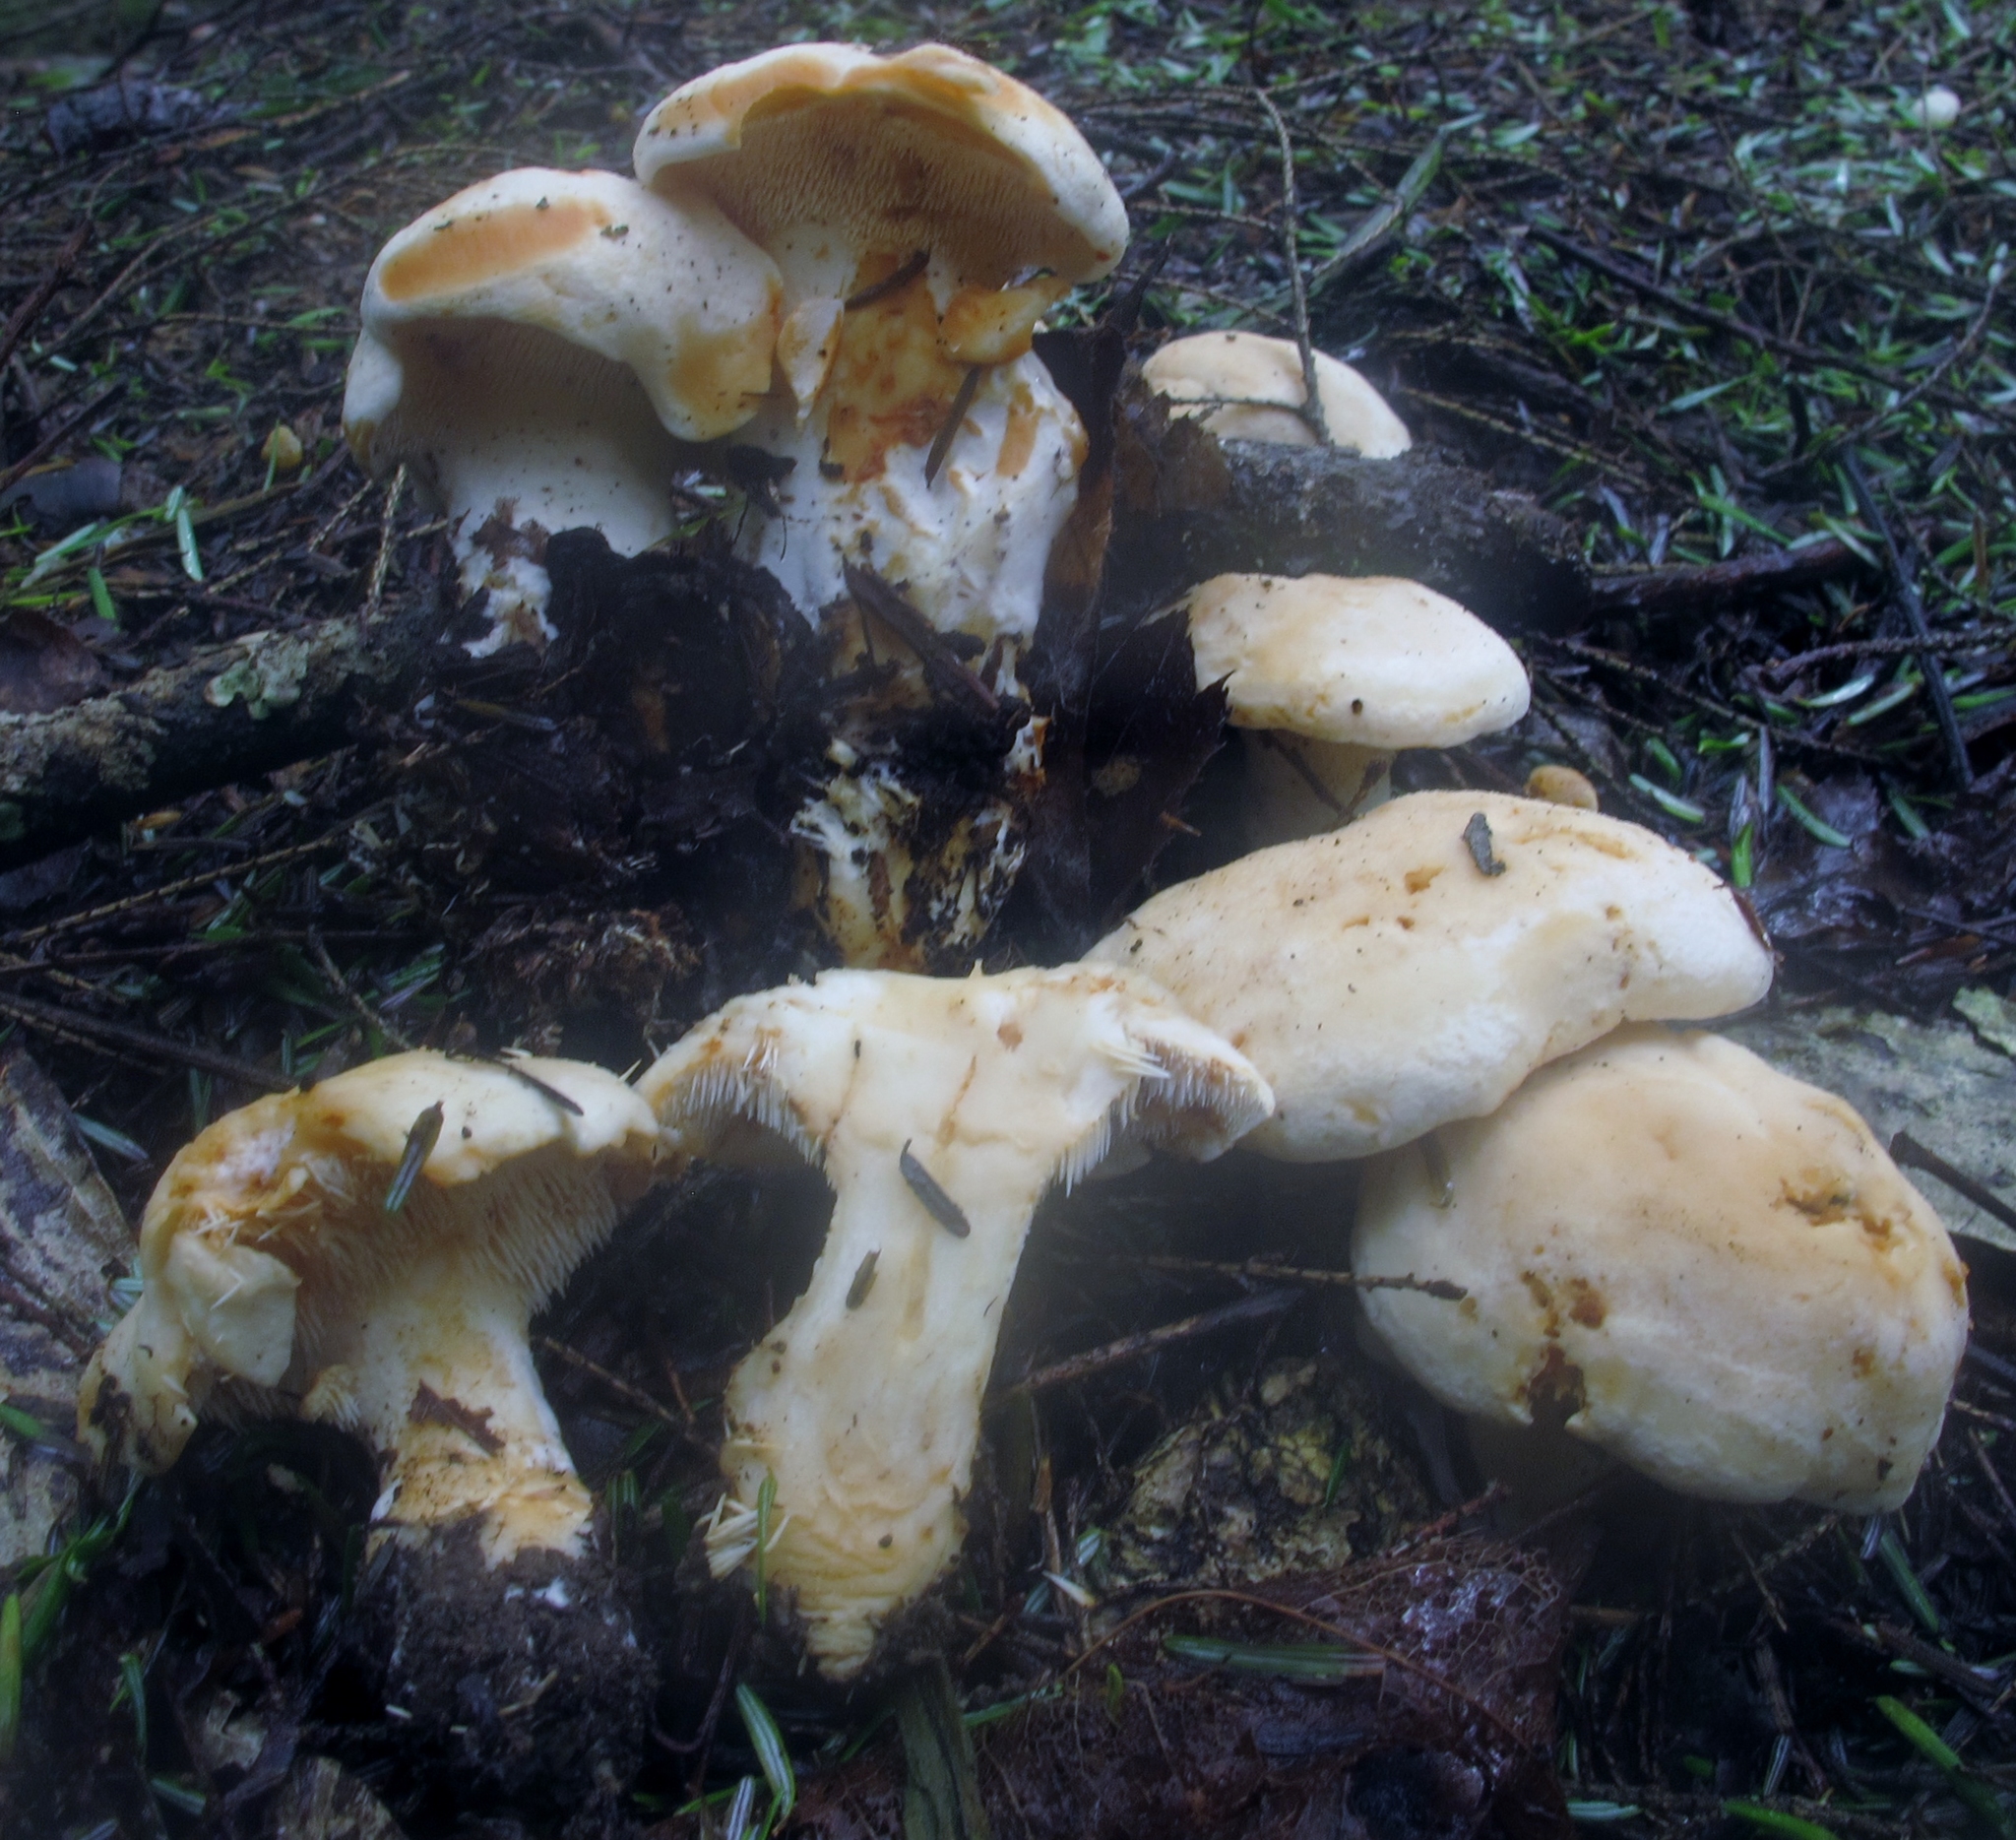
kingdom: Fungi
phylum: Basidiomycota
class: Agaricomycetes
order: Cantharellales
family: Hydnaceae
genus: Hydnum
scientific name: Hydnum albidum
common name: White hedgehog
